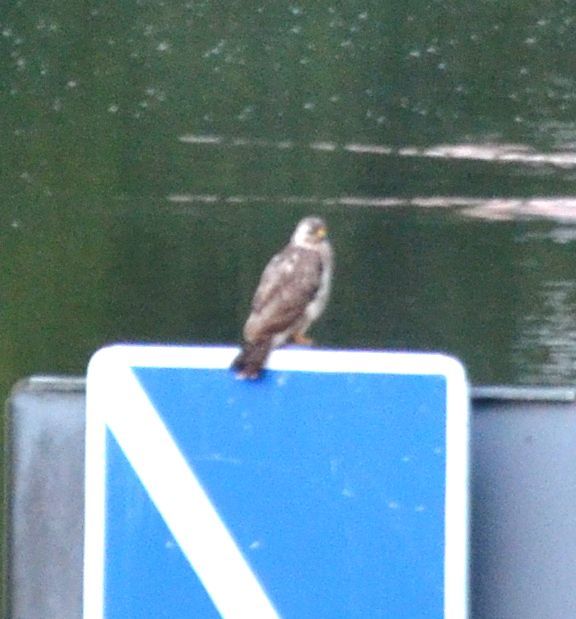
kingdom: Animalia
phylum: Chordata
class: Aves
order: Accipitriformes
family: Accipitridae
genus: Buteo
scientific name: Buteo buteo
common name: Common buzzard
